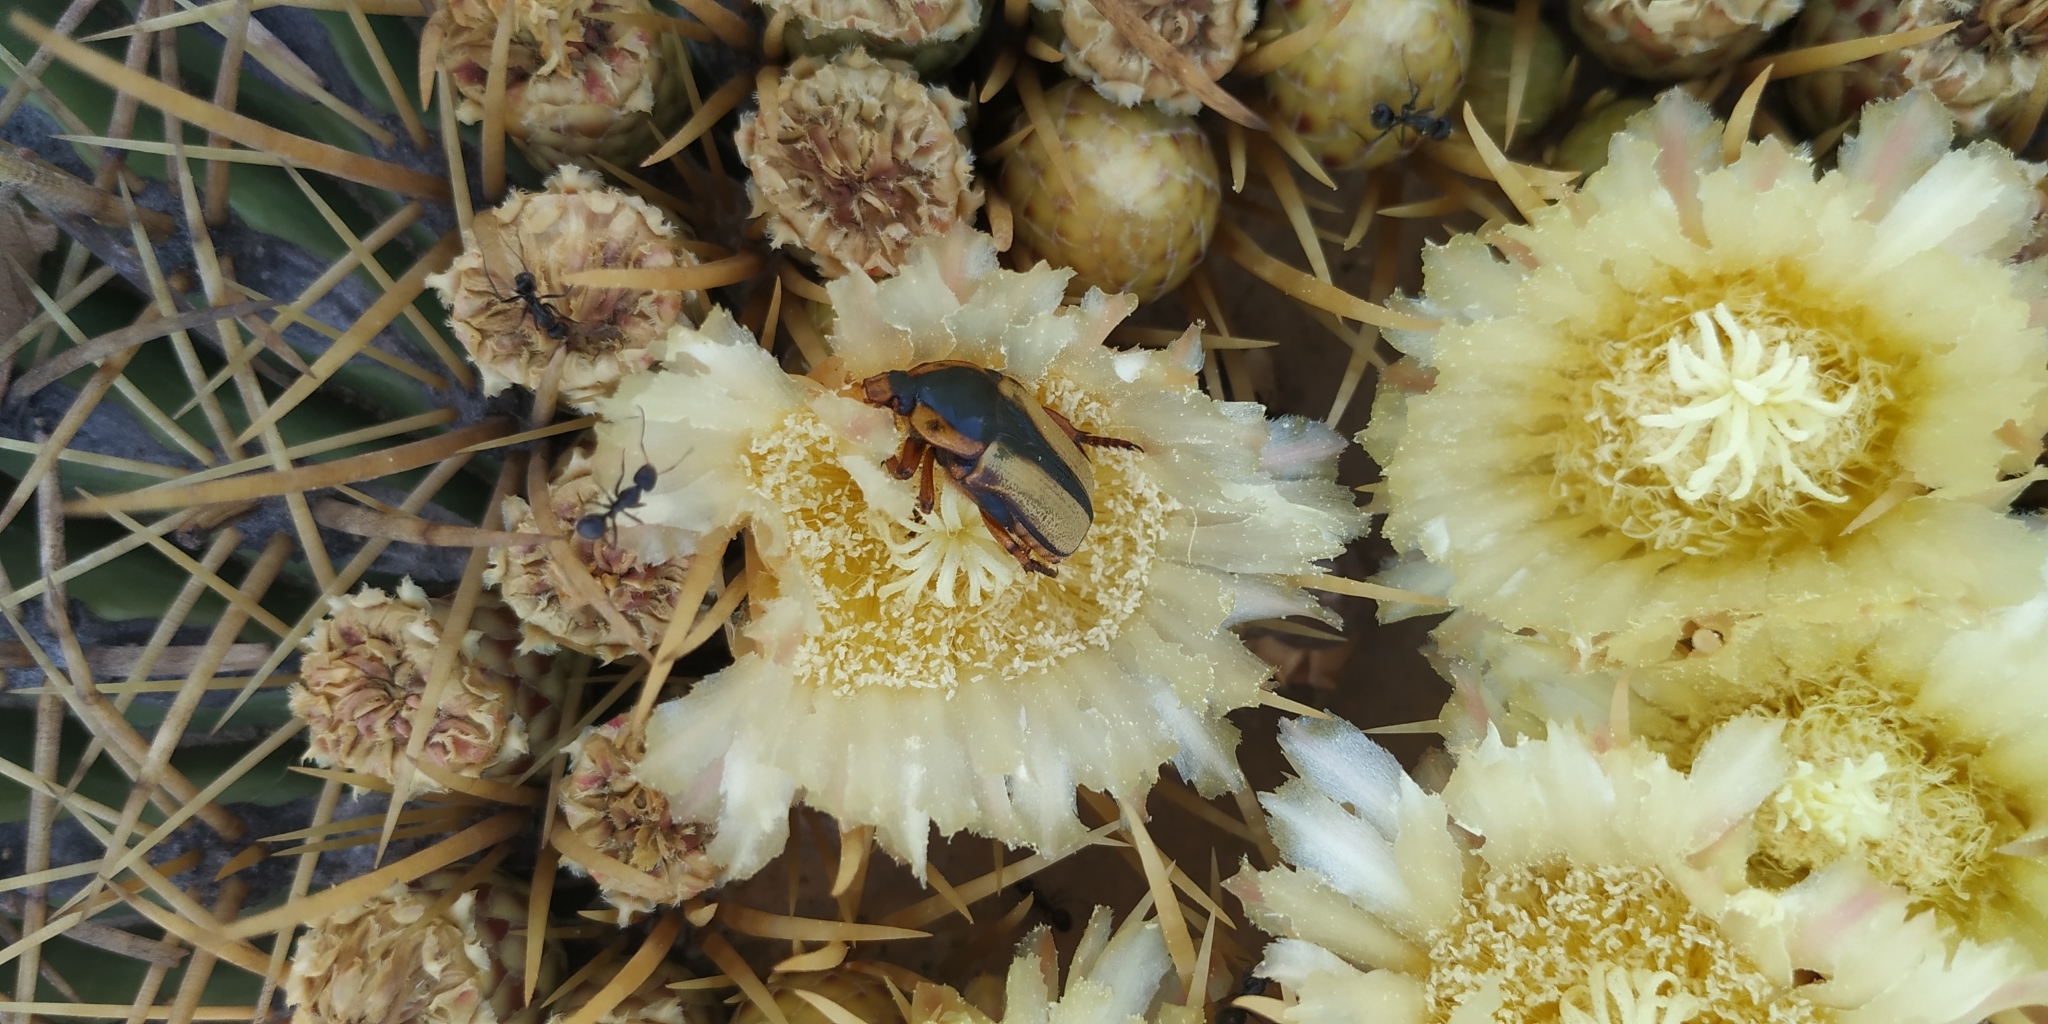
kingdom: Animalia
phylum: Arthropoda
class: Insecta
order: Coleoptera
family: Scarabaeidae
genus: Chlorixanthe
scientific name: Chlorixanthe chapini
